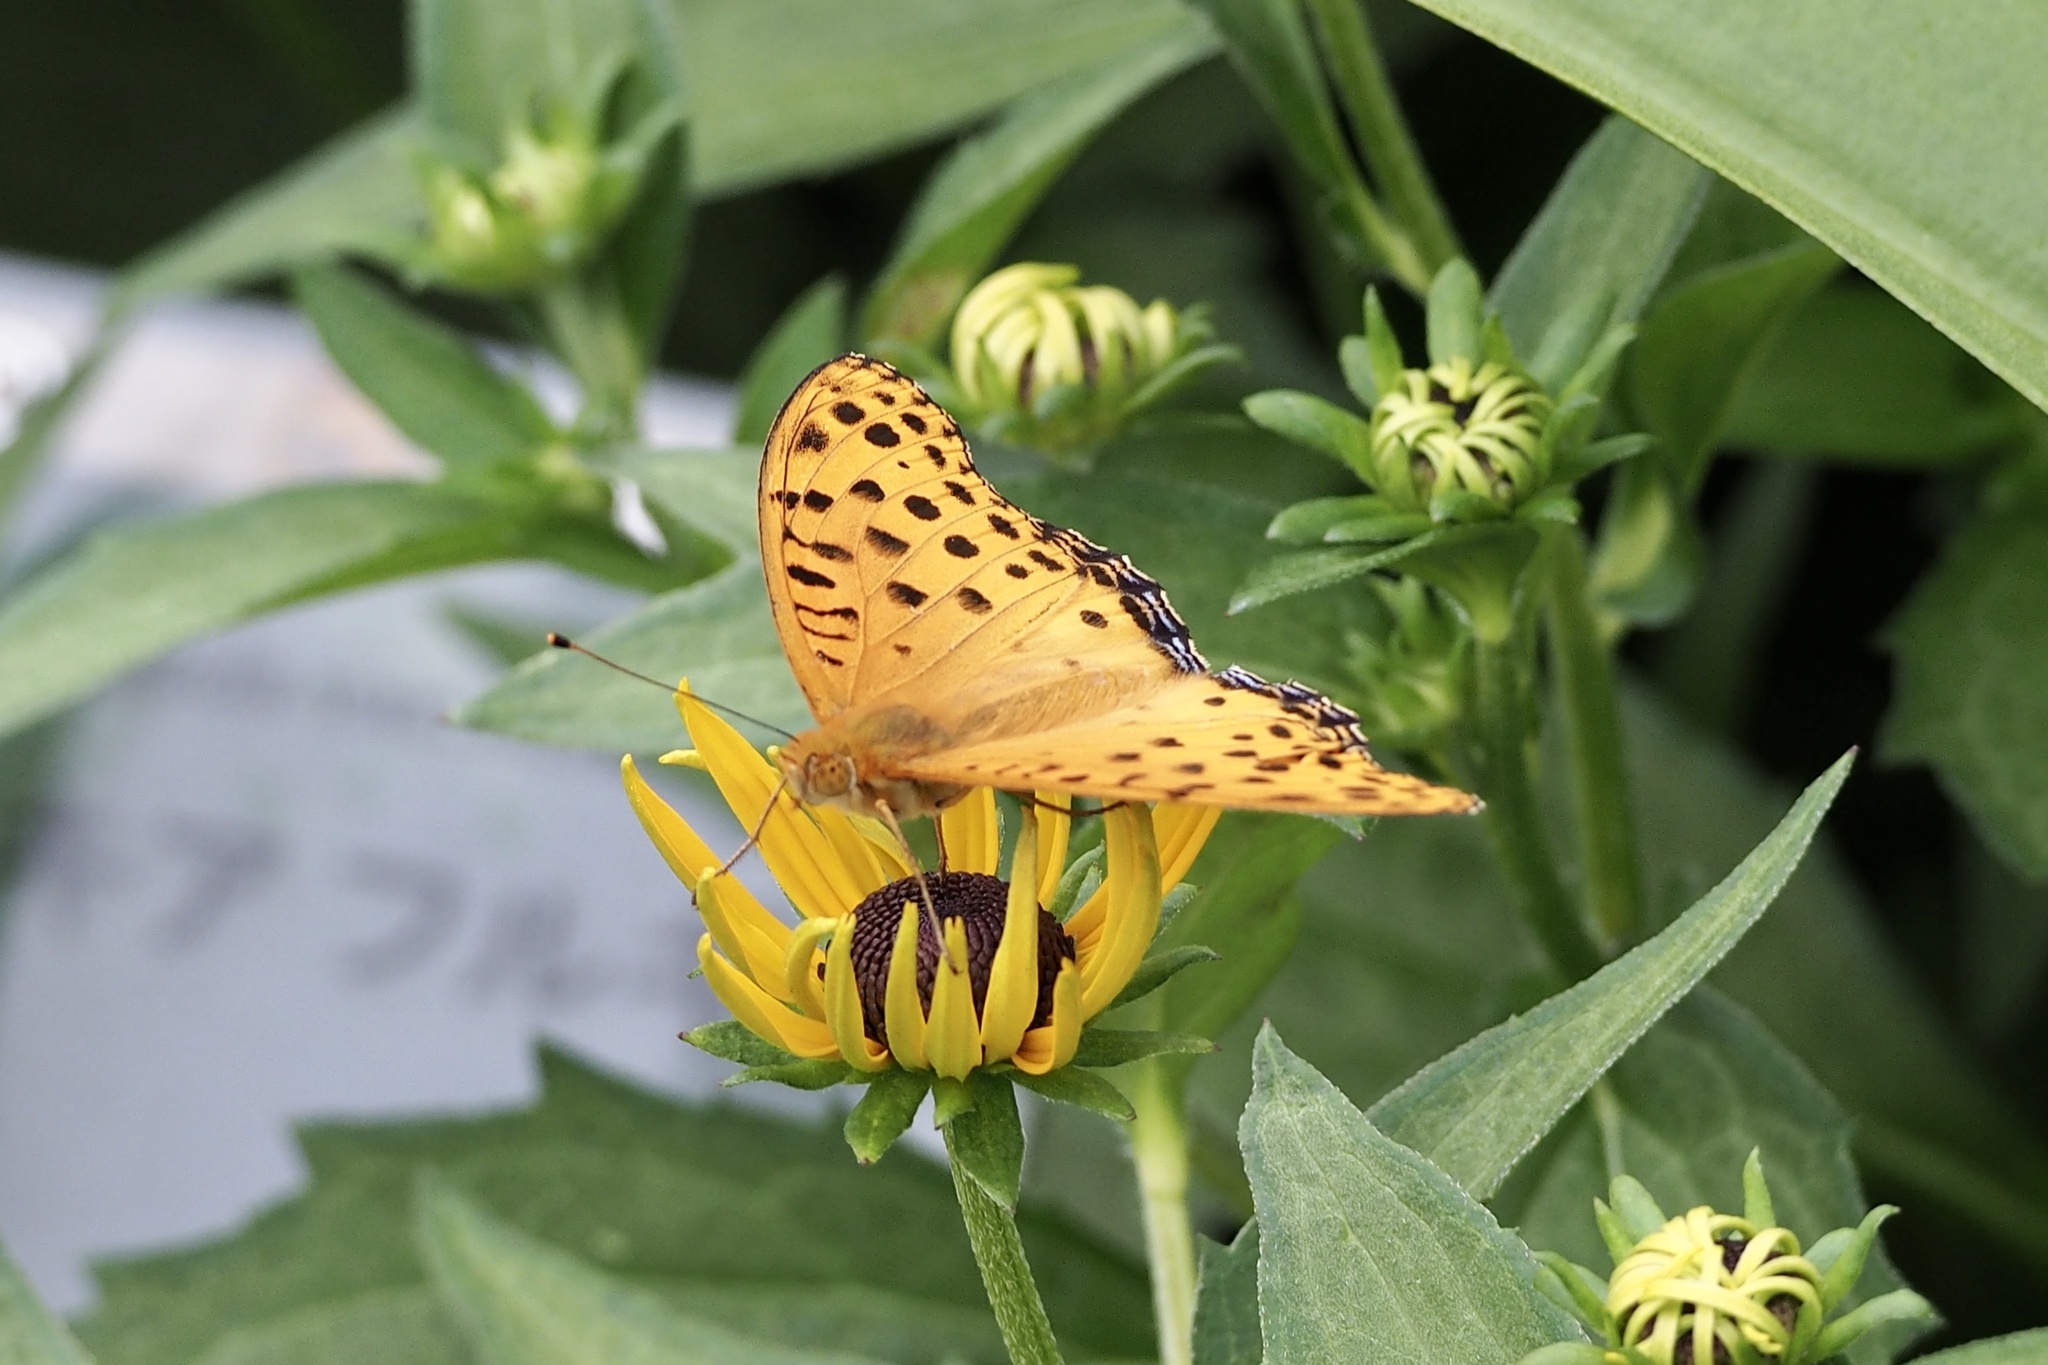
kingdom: Animalia
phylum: Arthropoda
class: Insecta
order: Lepidoptera
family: Nymphalidae
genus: Argynnis
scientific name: Argynnis hyperbius
